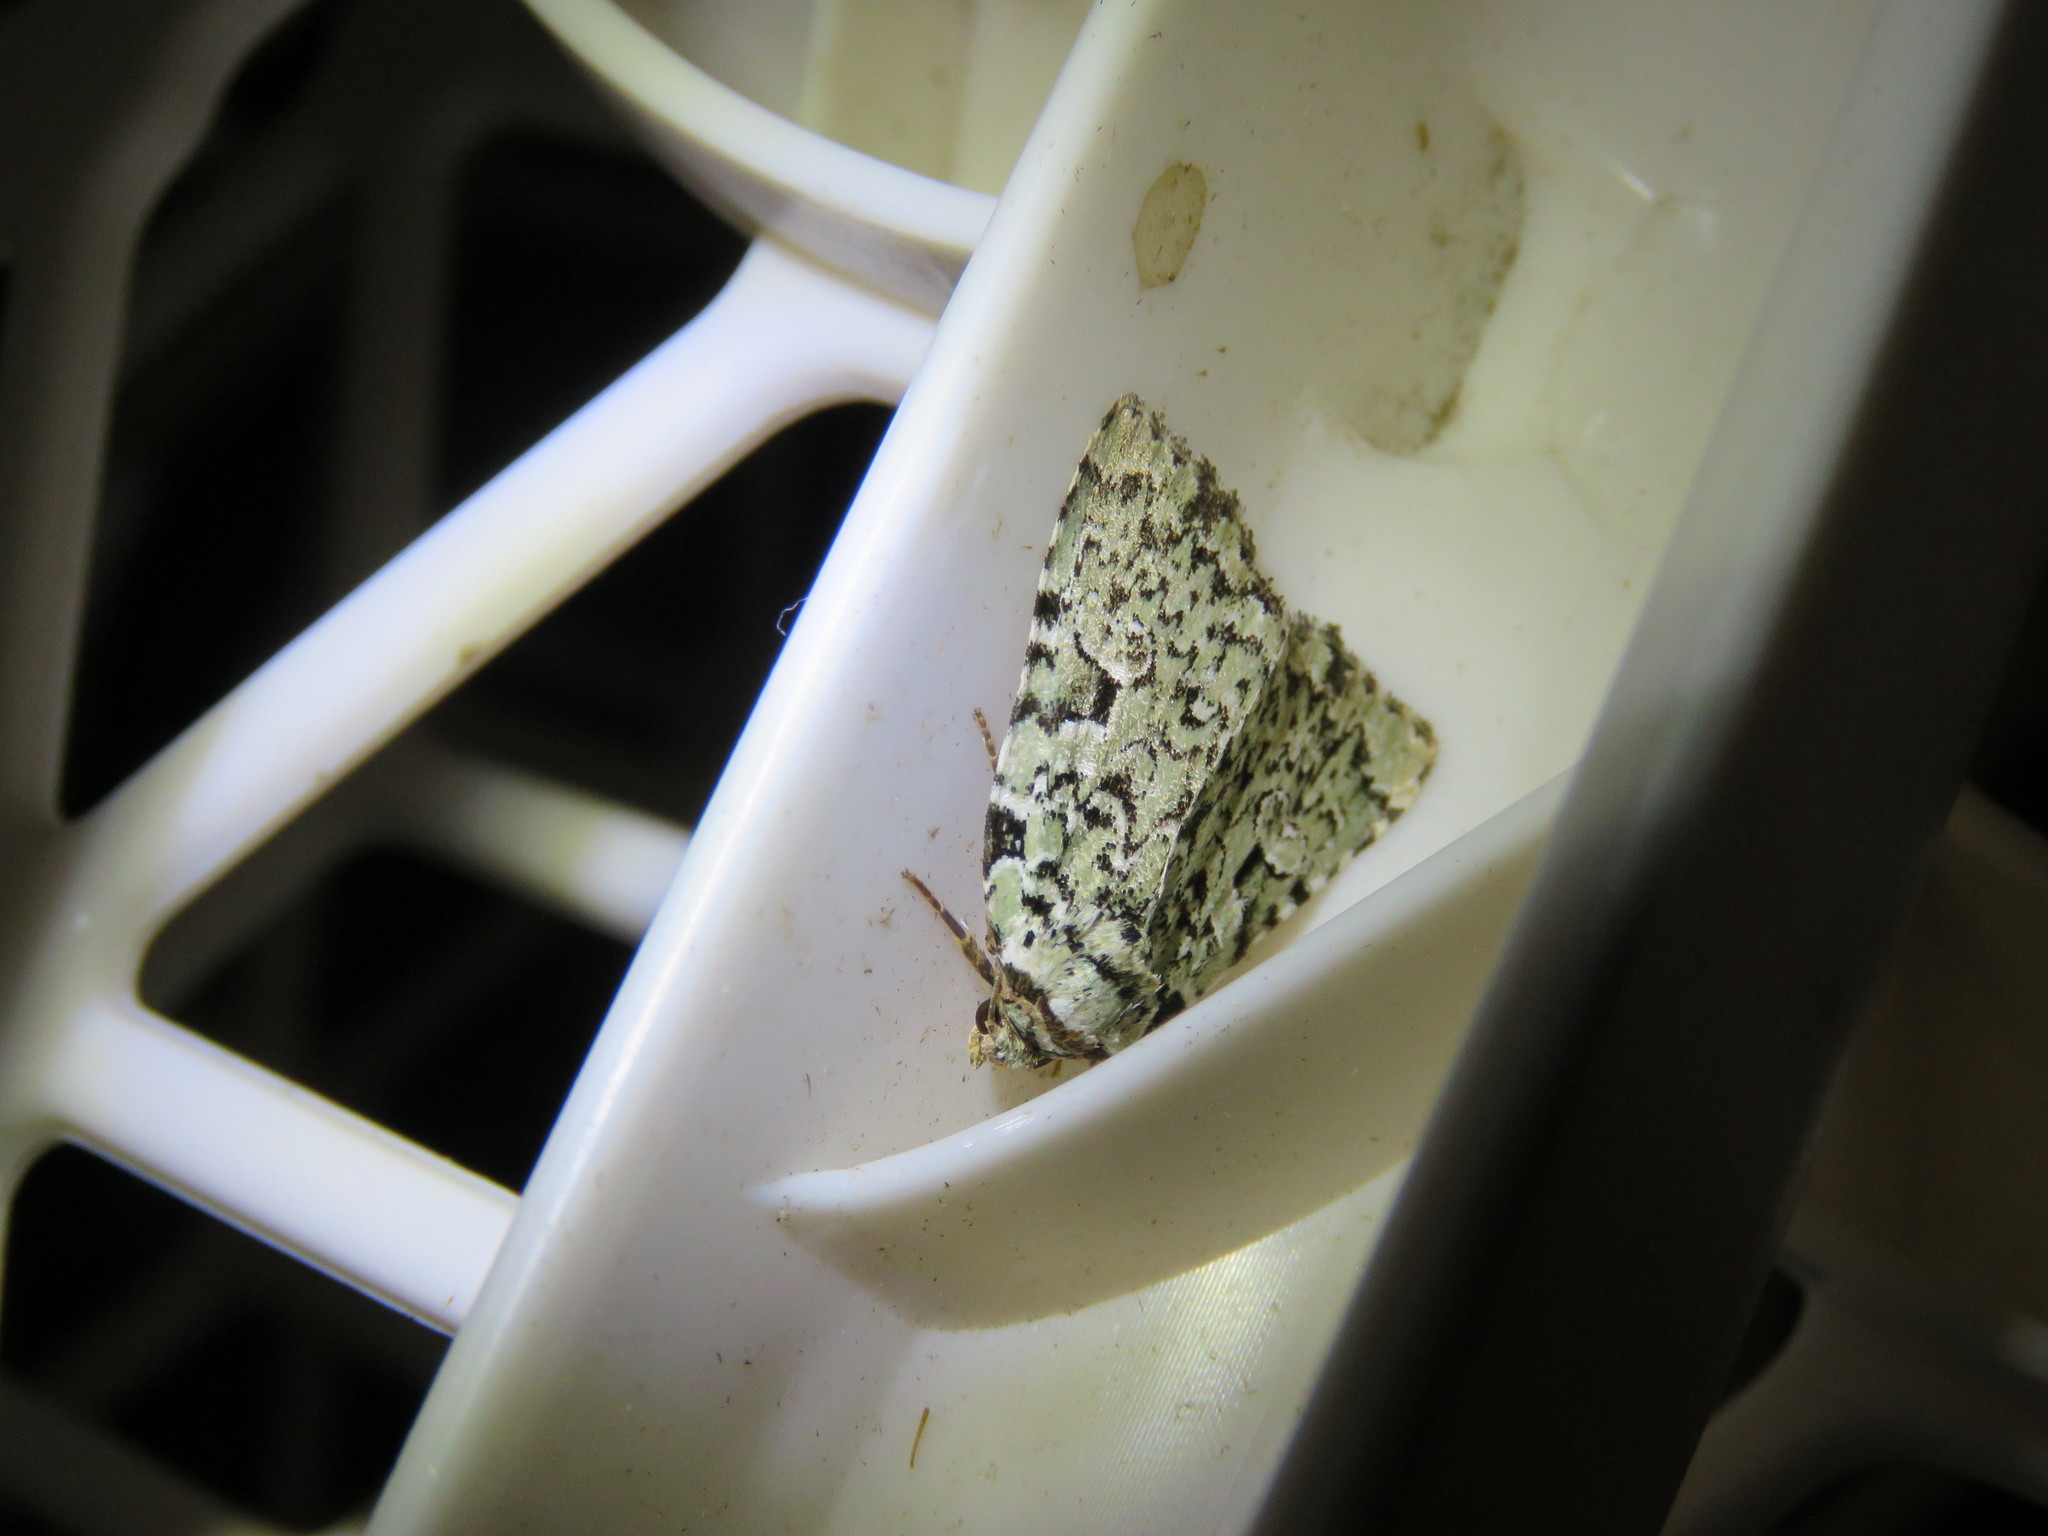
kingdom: Animalia
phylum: Arthropoda
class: Insecta
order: Lepidoptera
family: Noctuidae
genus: Leuconycta
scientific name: Leuconycta diphteroides
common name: Green leuconycta moth
